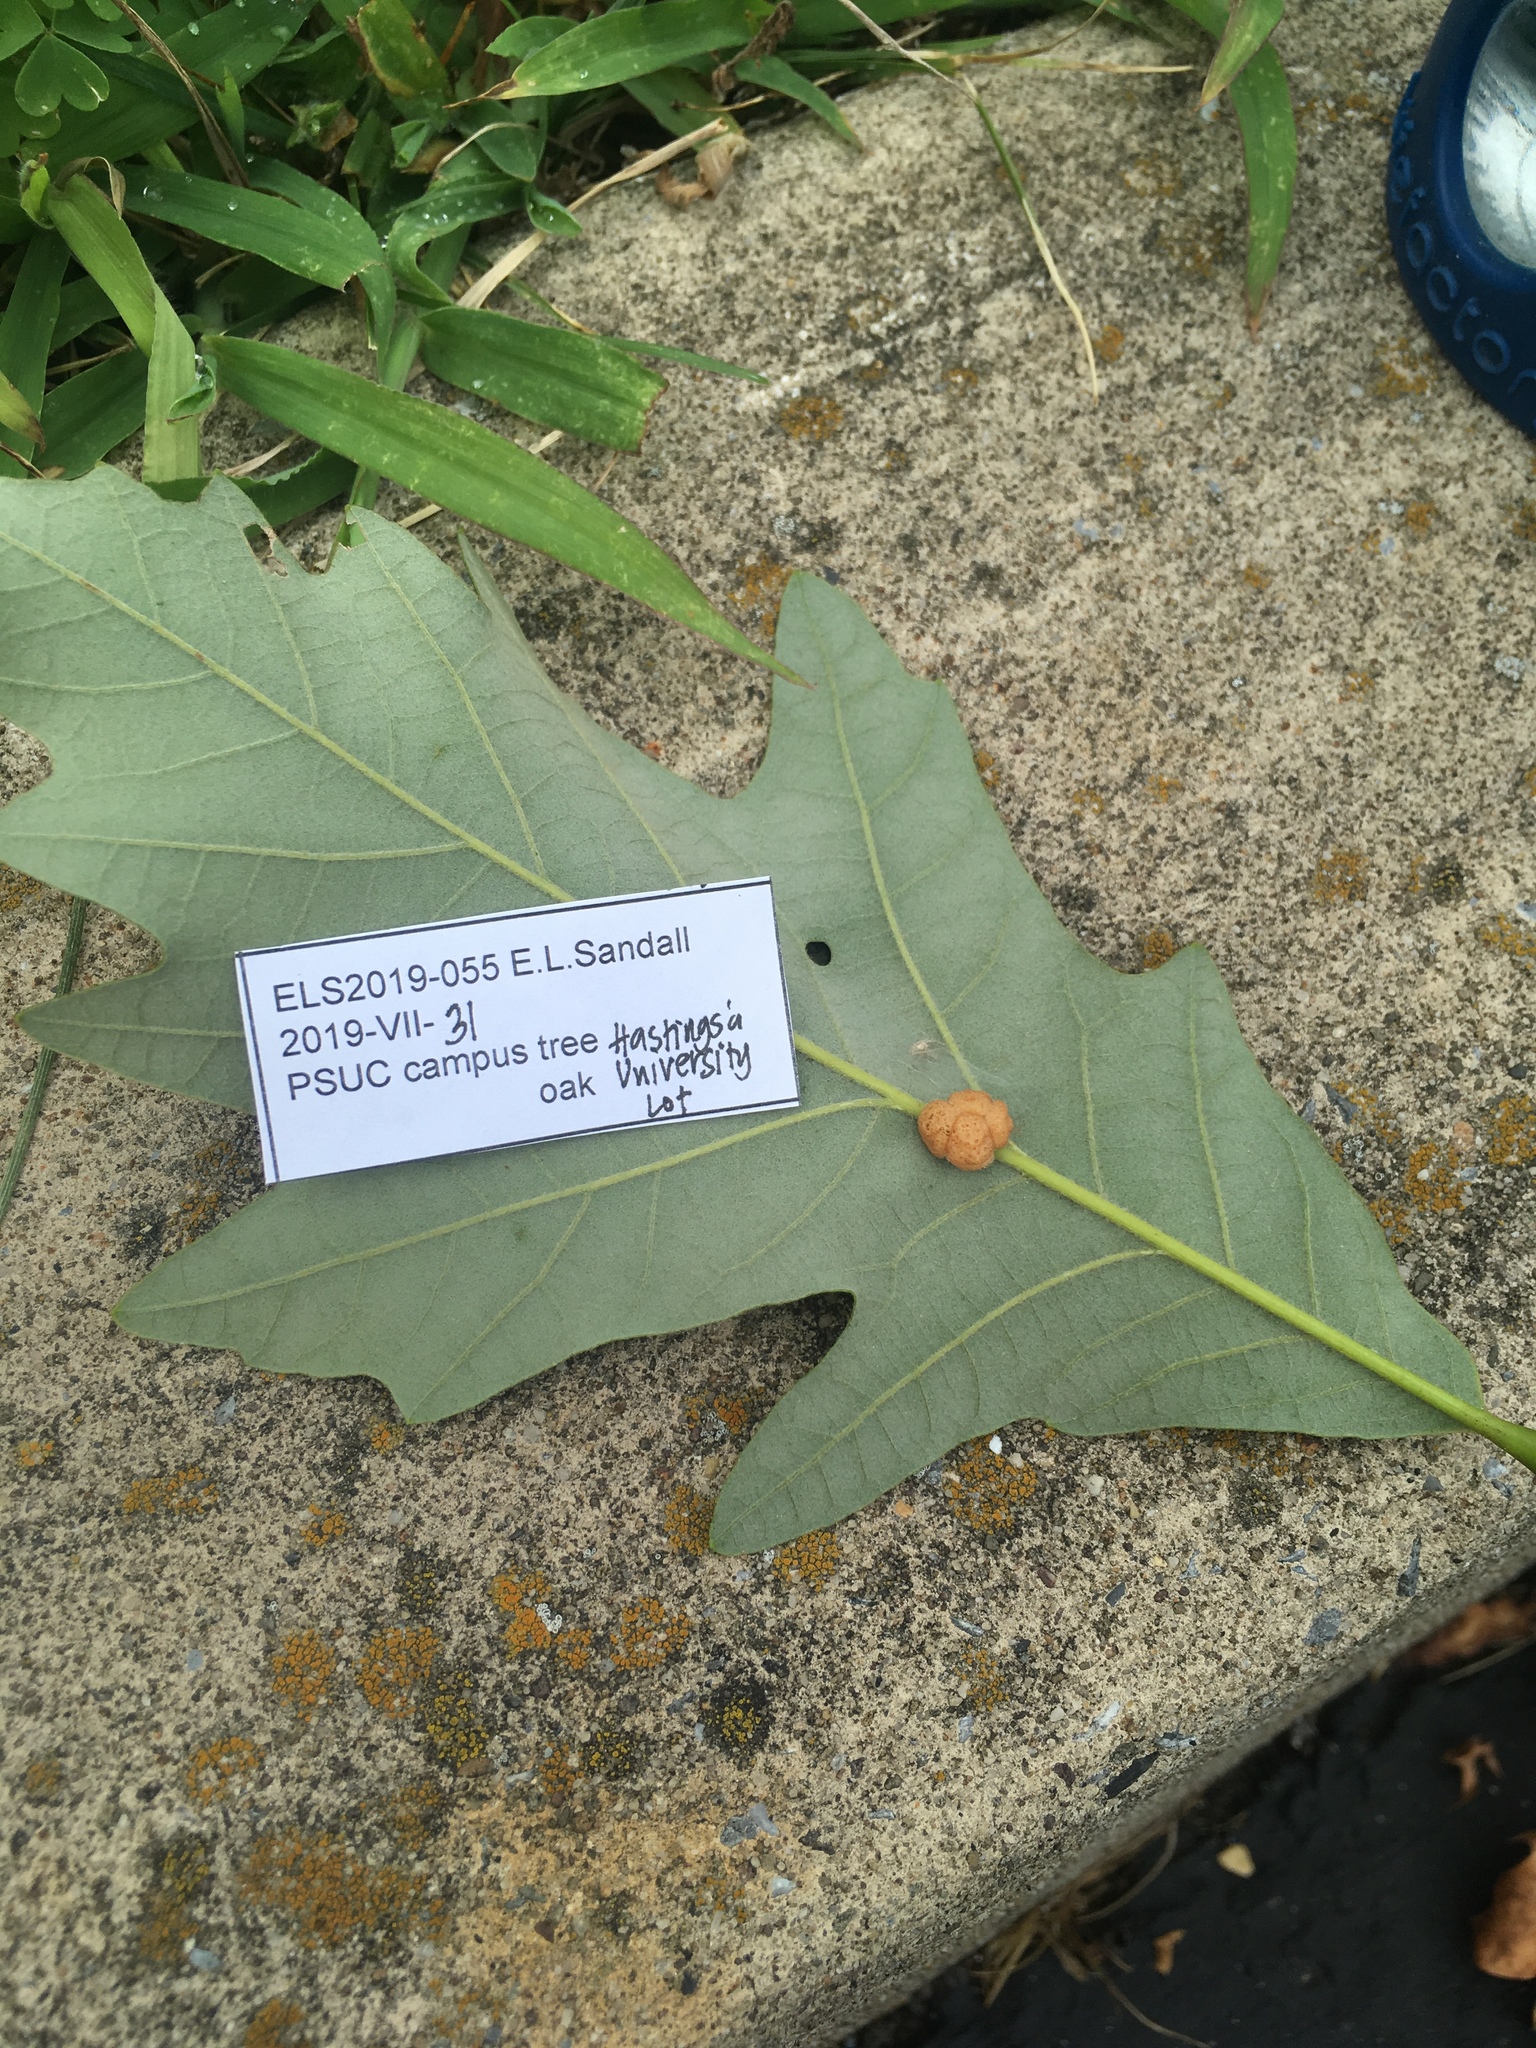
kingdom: Animalia
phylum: Arthropoda
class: Insecta
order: Hymenoptera
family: Cynipidae
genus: Andricus
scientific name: Andricus
